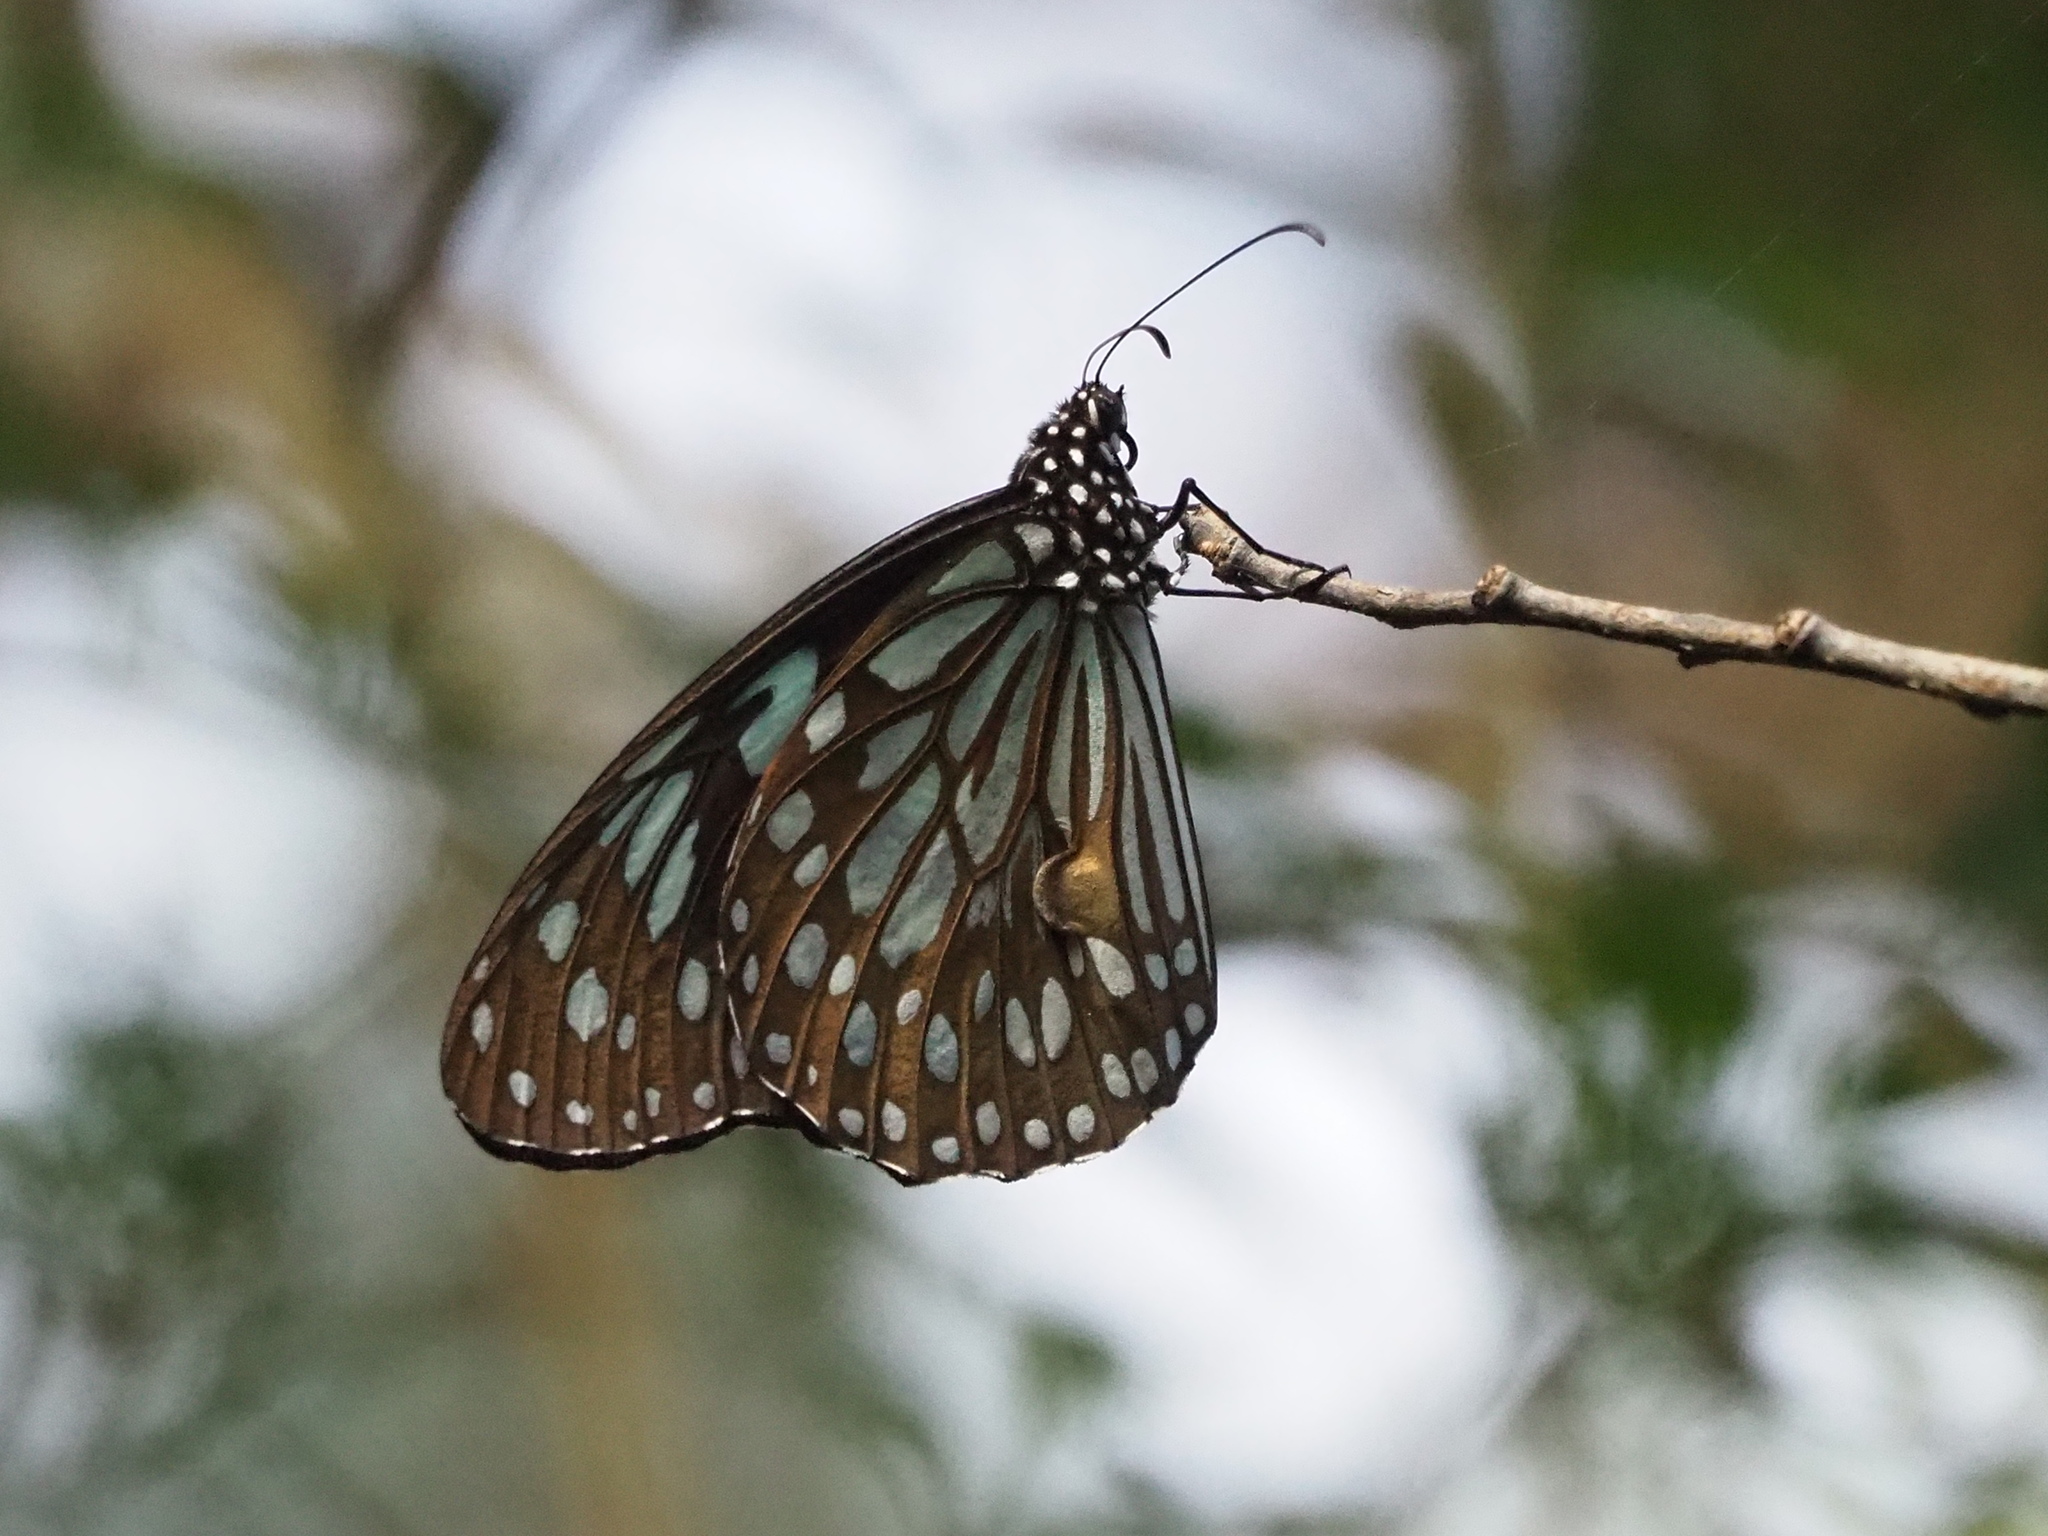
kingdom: Animalia
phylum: Arthropoda
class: Insecta
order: Lepidoptera
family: Nymphalidae
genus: Tirumala
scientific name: Tirumala limniace
